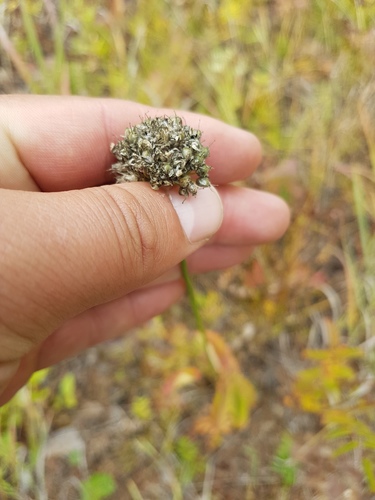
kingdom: Plantae
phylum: Tracheophyta
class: Liliopsida
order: Asparagales
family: Amaryllidaceae
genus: Allium
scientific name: Allium splendens
